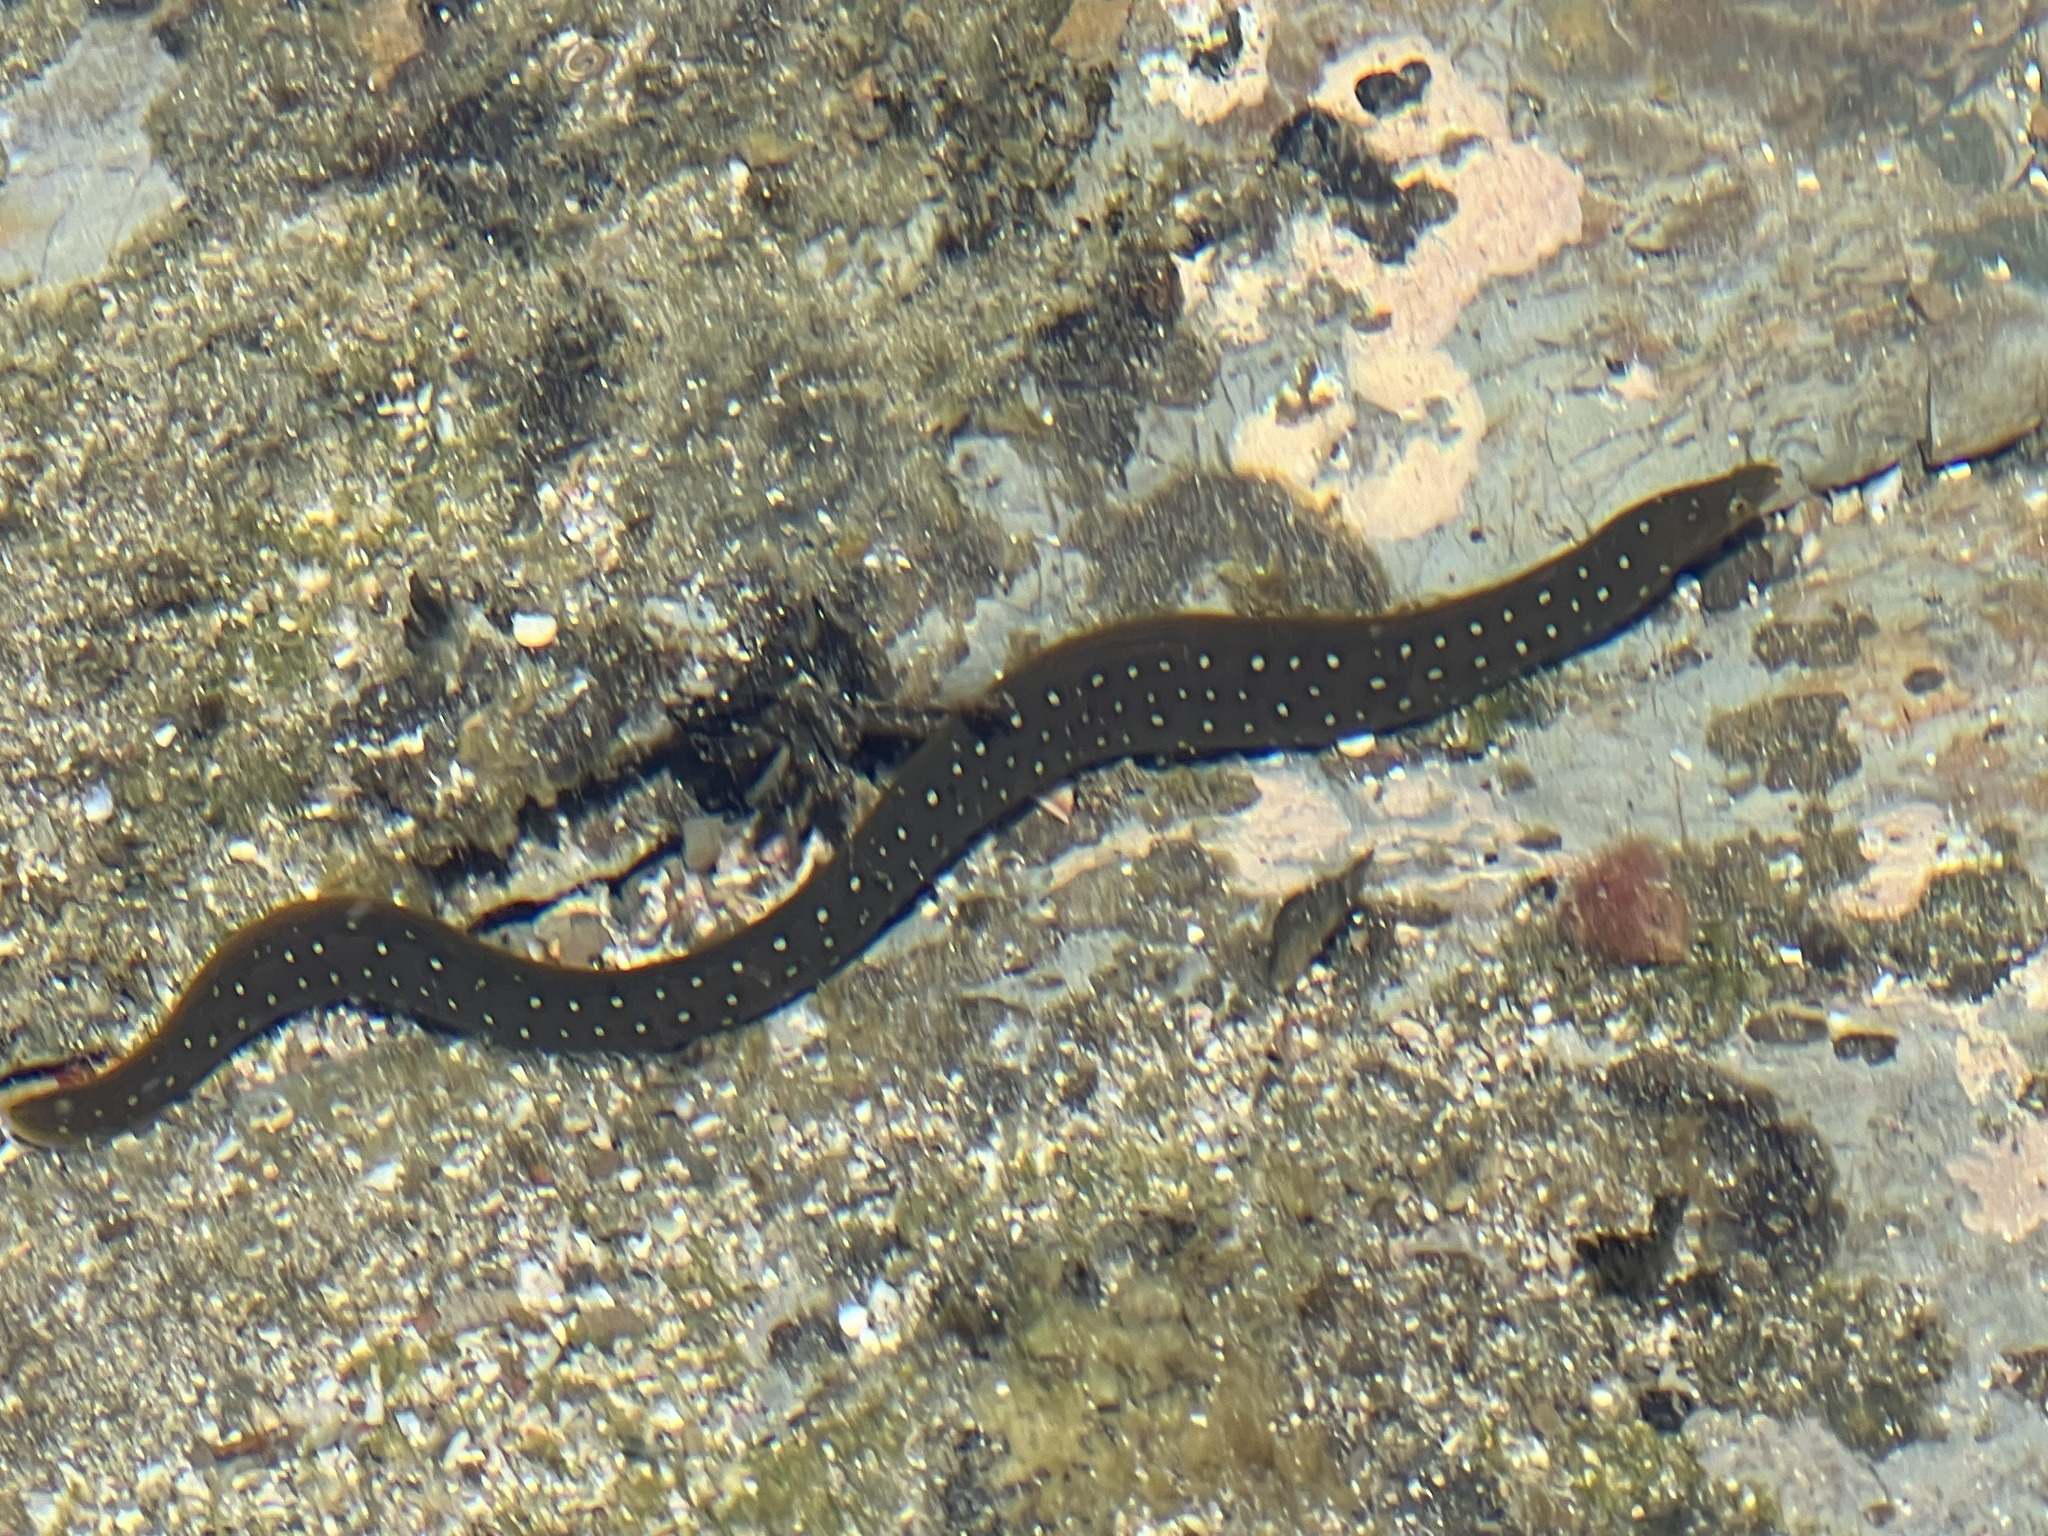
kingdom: Animalia
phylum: Chordata
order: Anguilliformes
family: Muraenidae
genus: Echidna
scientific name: Echidna nocturna
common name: Palenose moray
